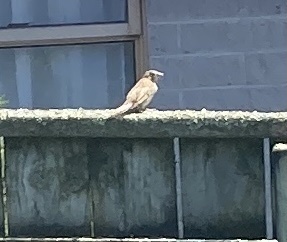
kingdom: Animalia
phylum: Chordata
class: Aves
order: Passeriformes
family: Passeridae
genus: Passer
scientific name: Passer domesticus
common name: House sparrow
